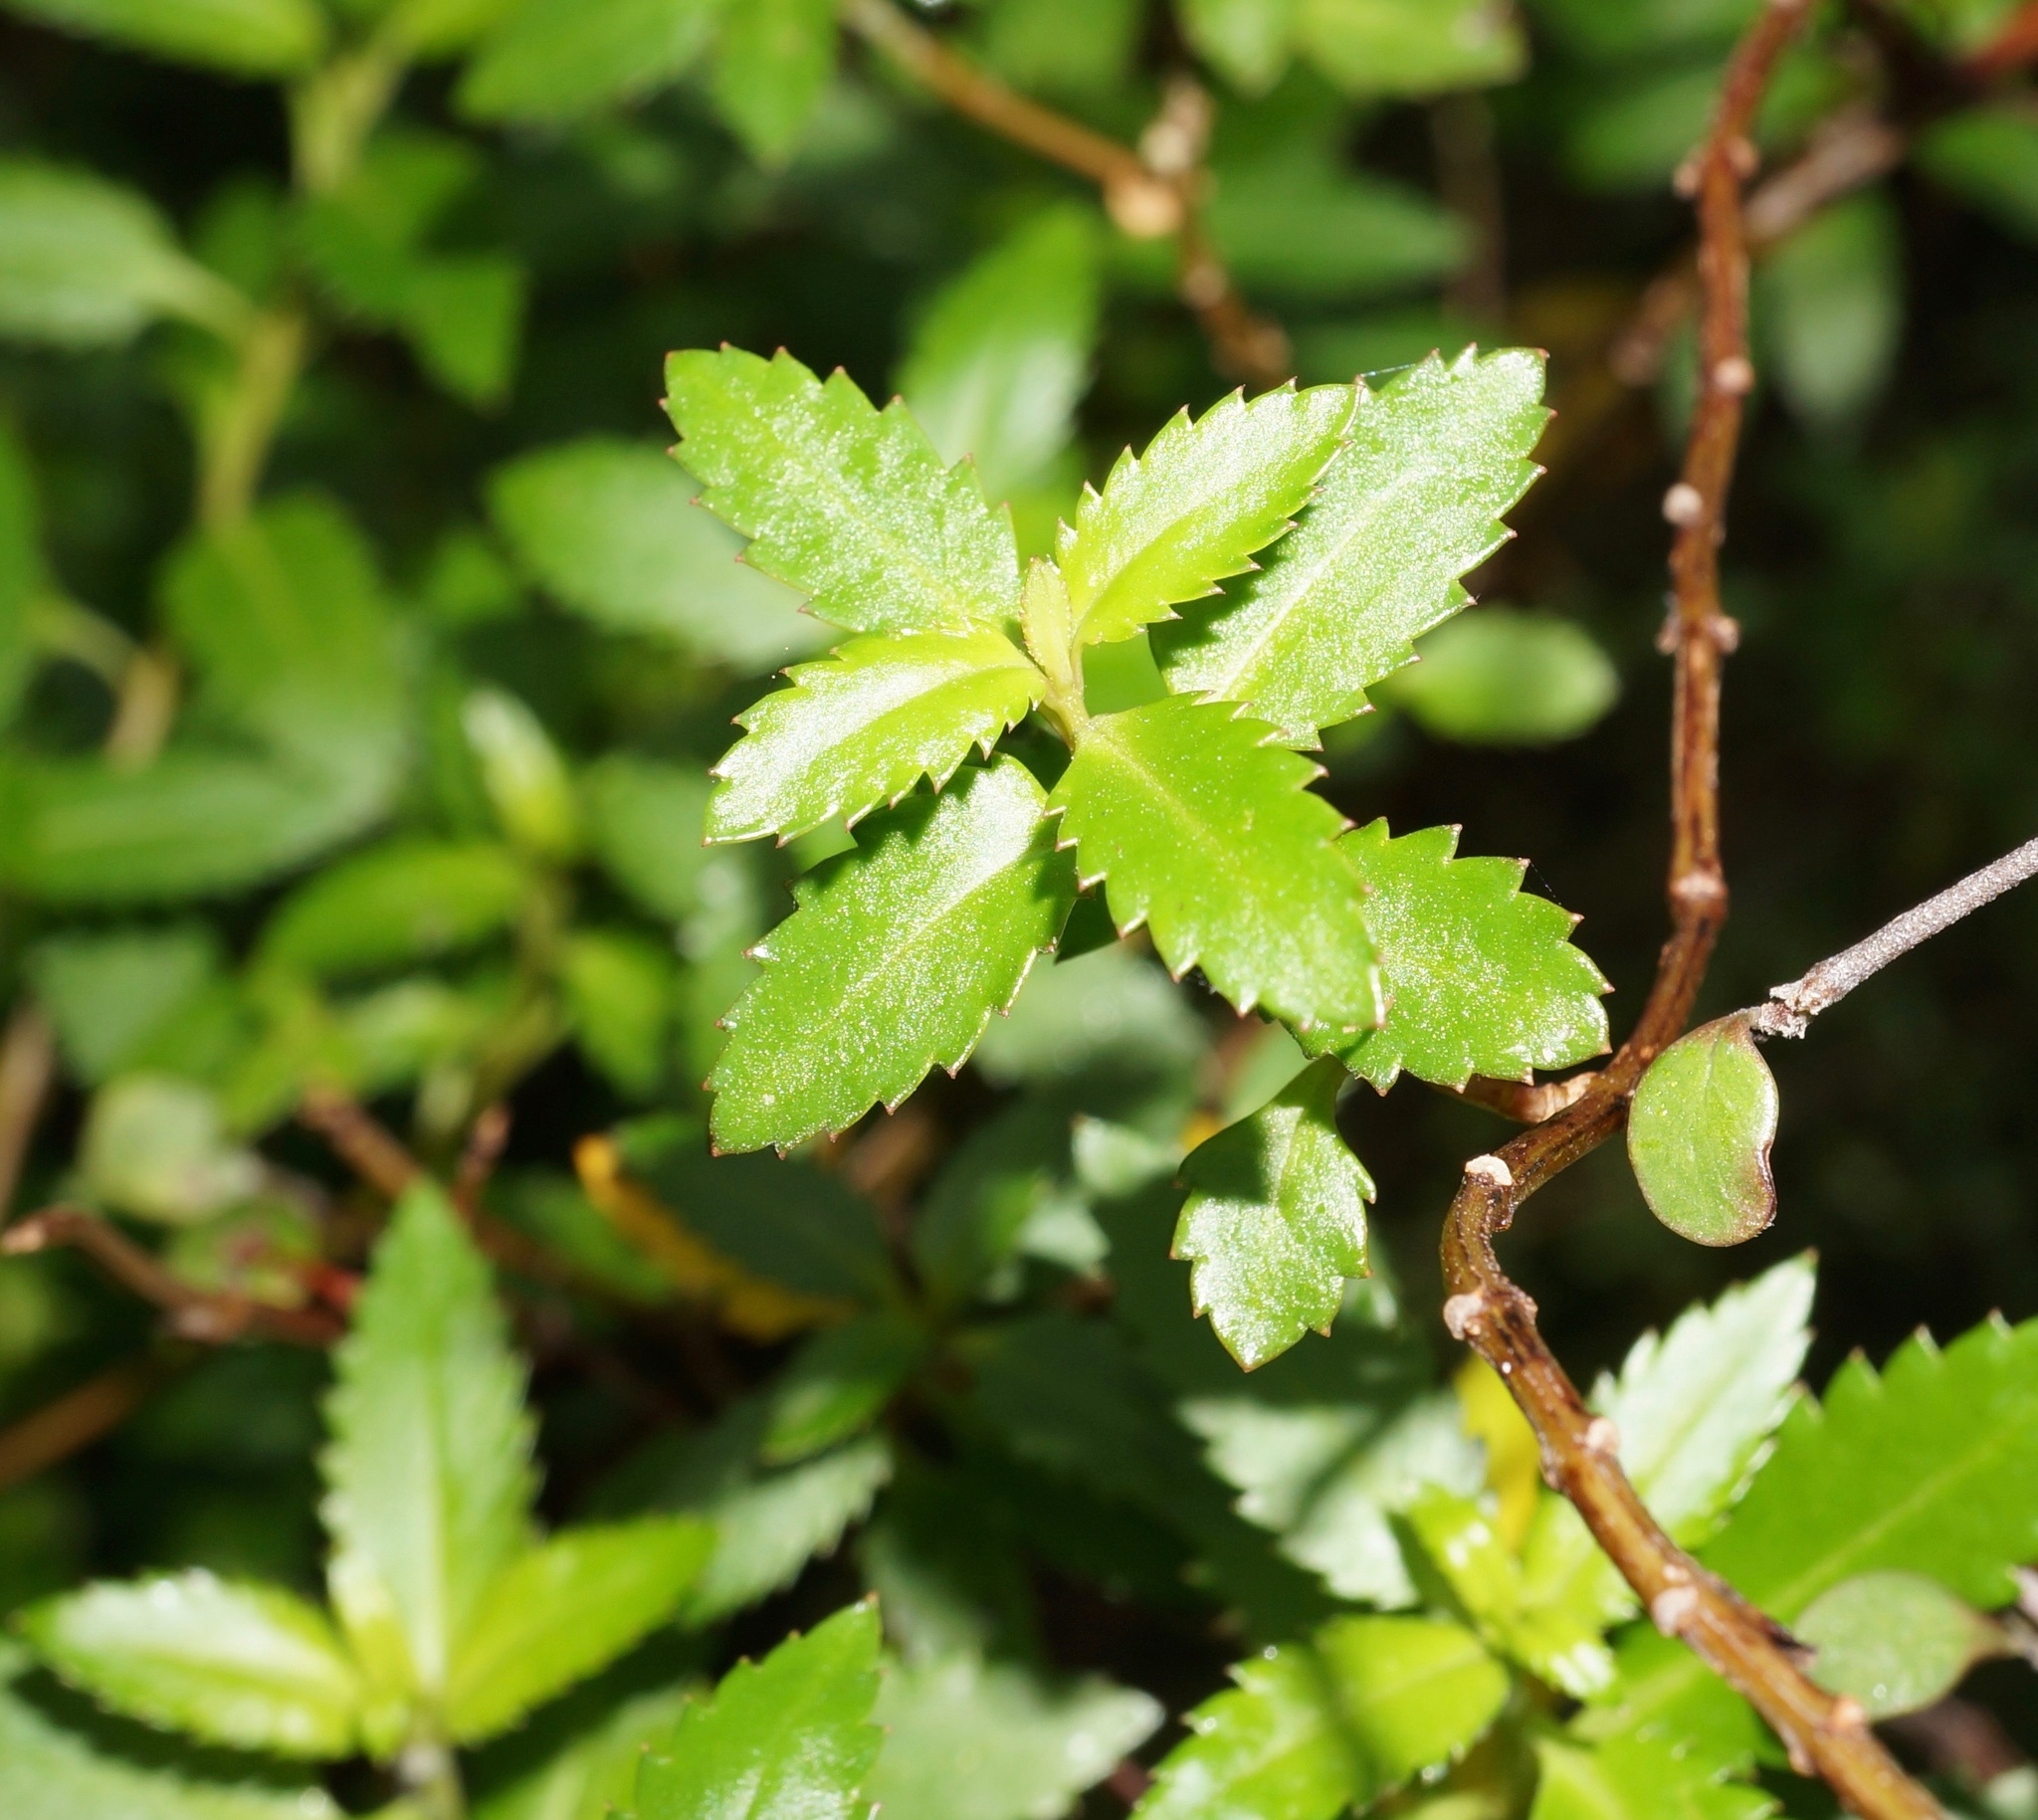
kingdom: Plantae
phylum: Tracheophyta
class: Magnoliopsida
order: Saxifragales
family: Haloragaceae
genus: Haloragis
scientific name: Haloragis erecta
